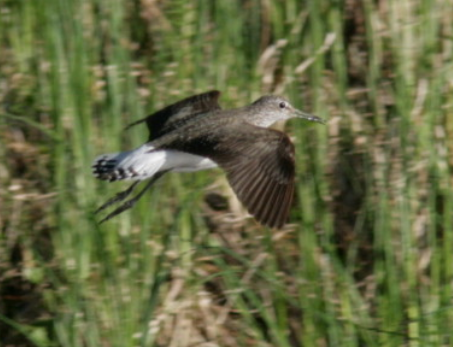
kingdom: Animalia
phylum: Chordata
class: Aves
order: Charadriiformes
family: Scolopacidae
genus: Tringa
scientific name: Tringa ochropus
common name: Green sandpiper
